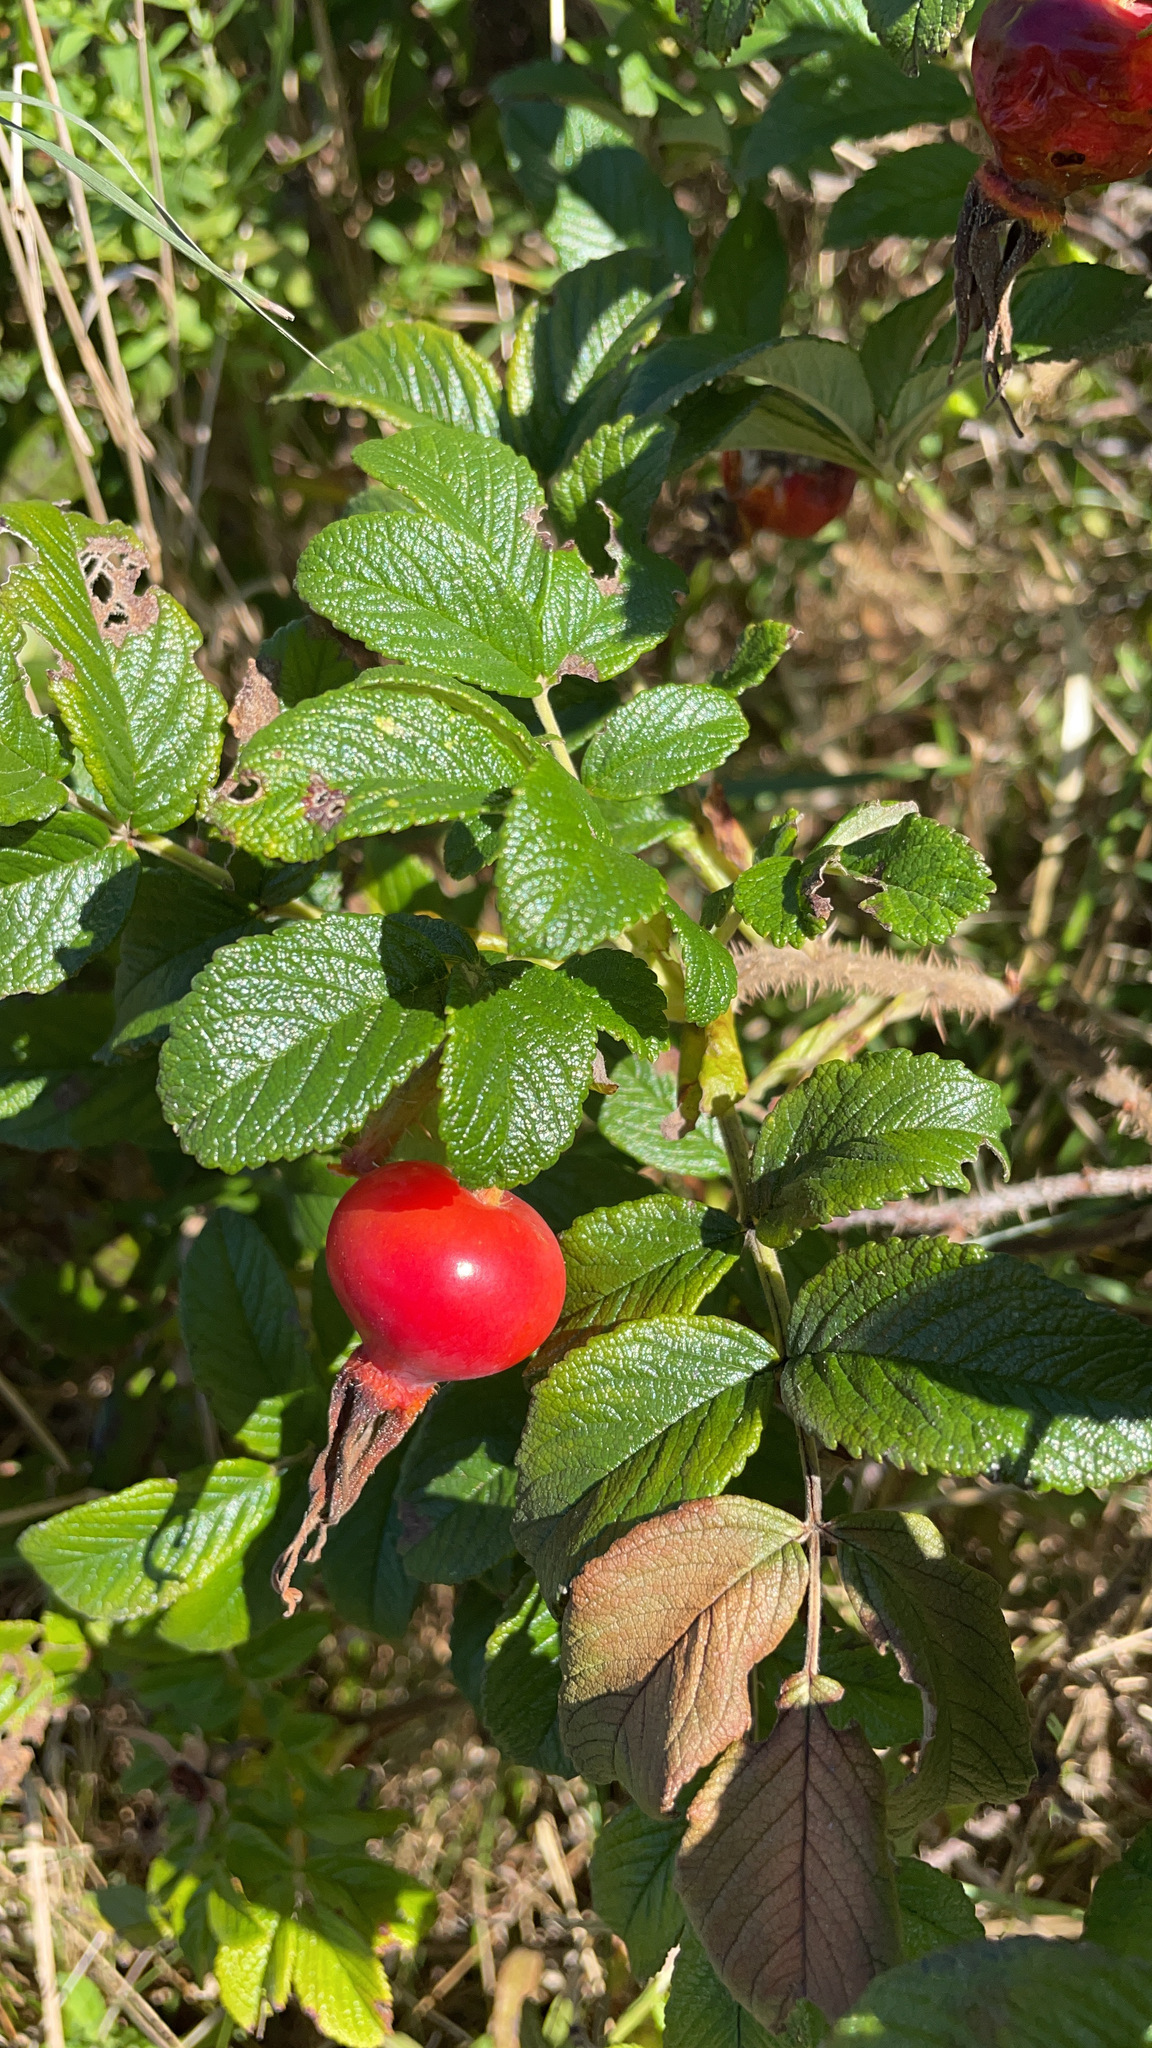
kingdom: Plantae
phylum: Tracheophyta
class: Magnoliopsida
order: Rosales
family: Rosaceae
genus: Rosa
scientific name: Rosa rugosa
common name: Japanese rose
